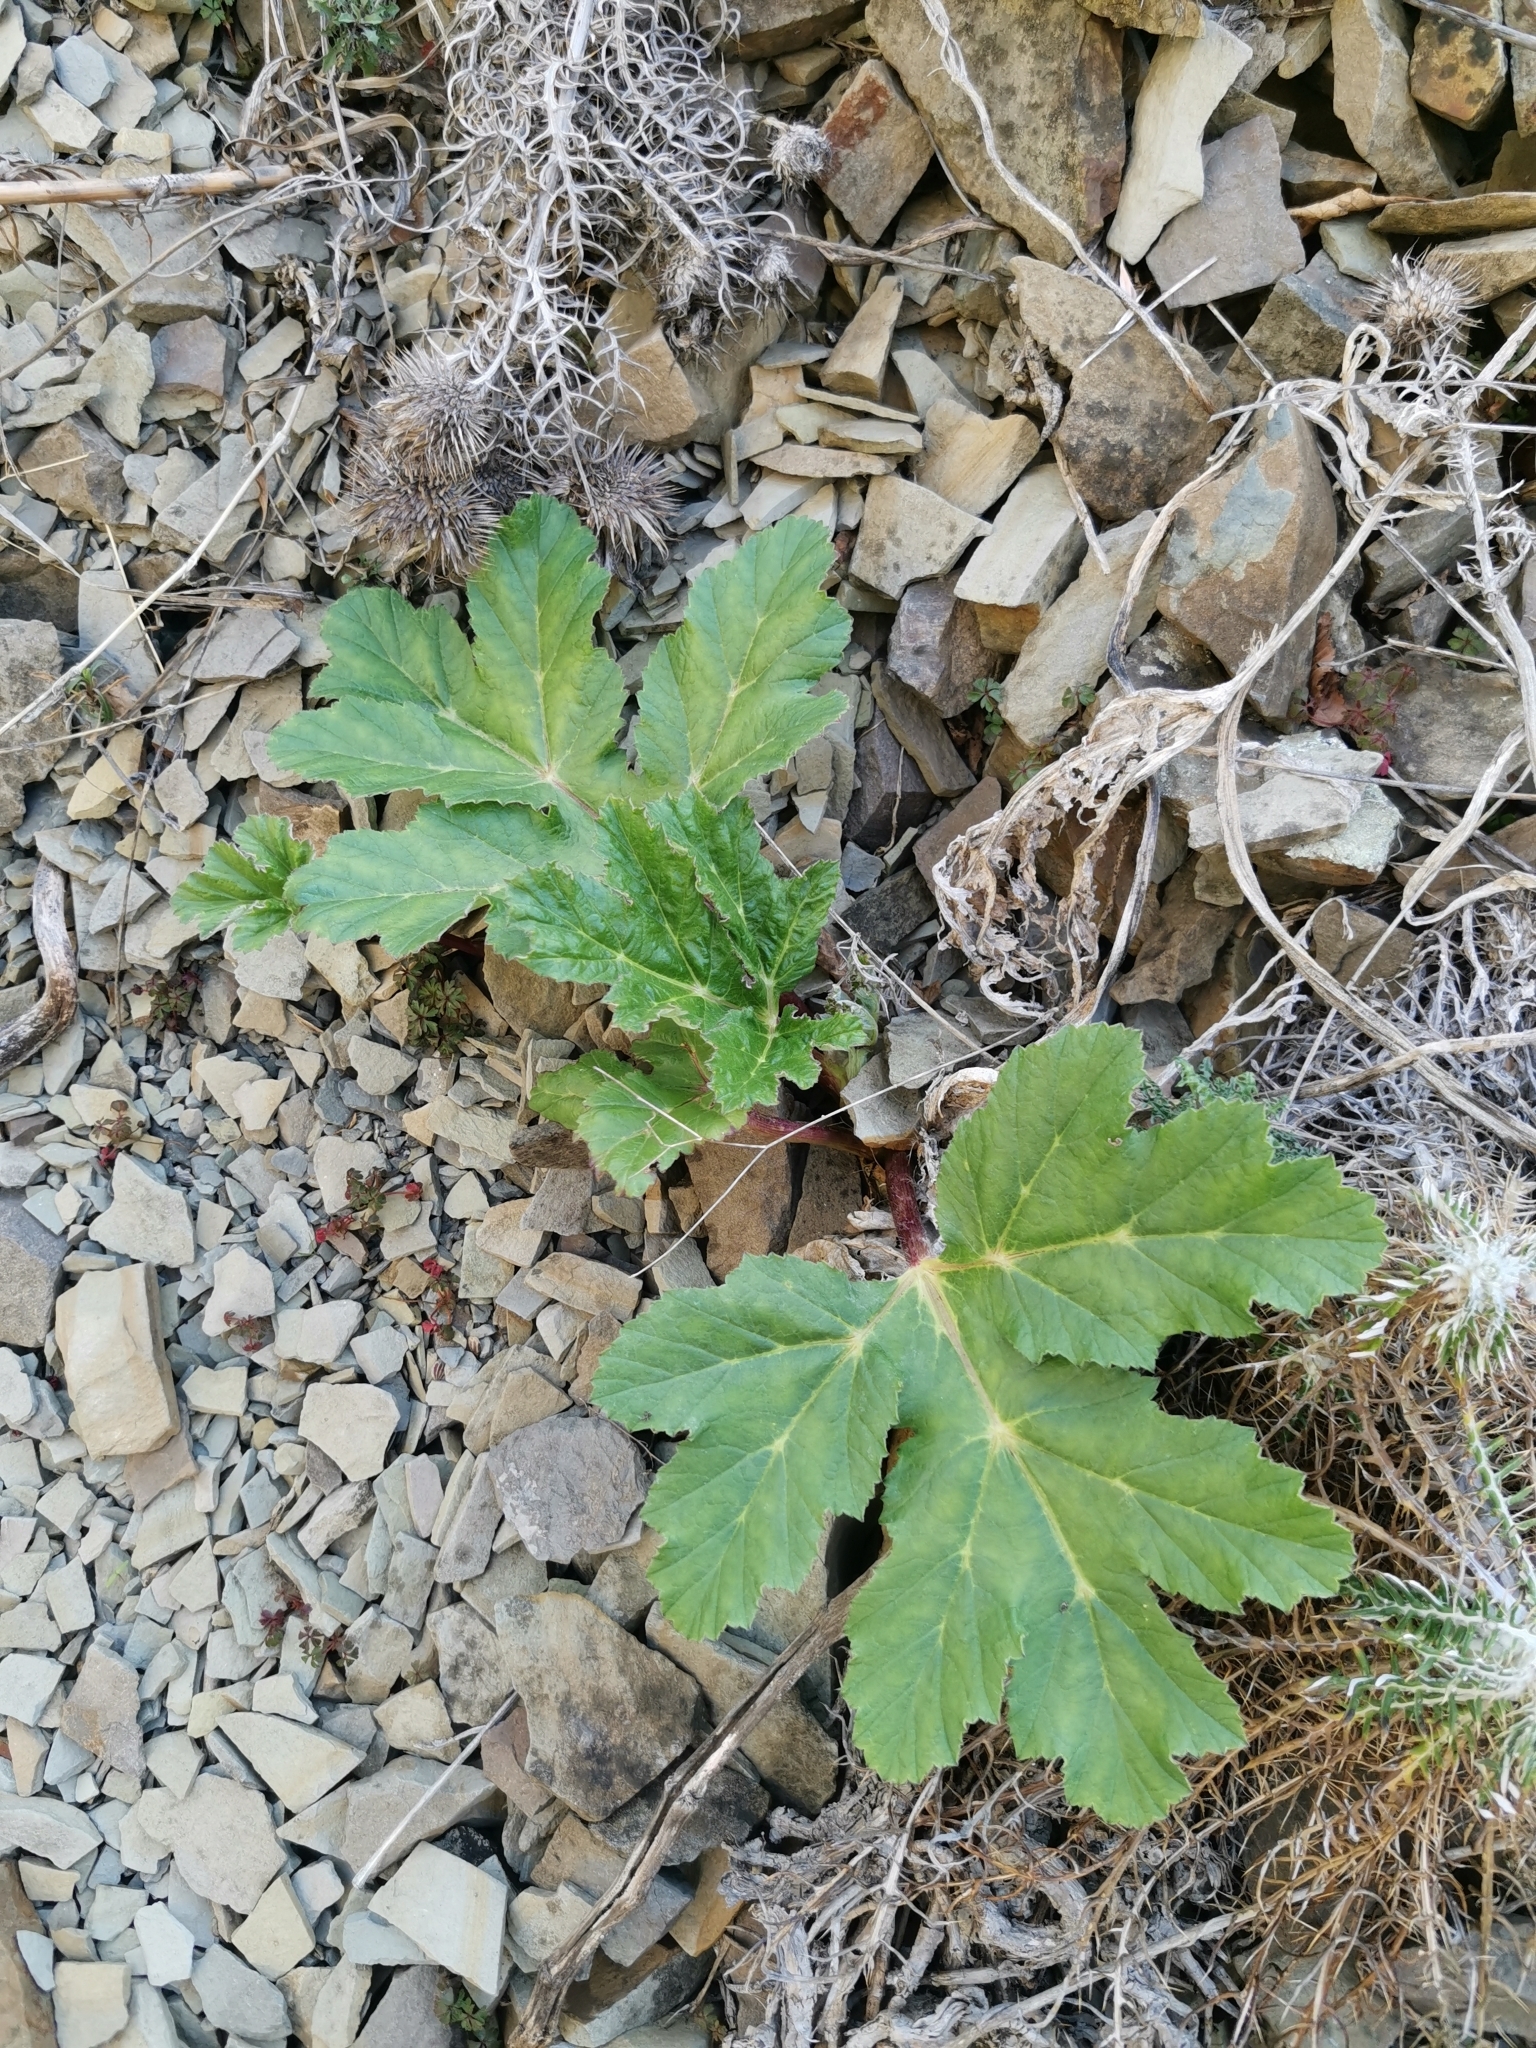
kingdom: Plantae
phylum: Tracheophyta
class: Magnoliopsida
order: Apiales
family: Apiaceae
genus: Heracleum
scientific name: Heracleum stevenii
